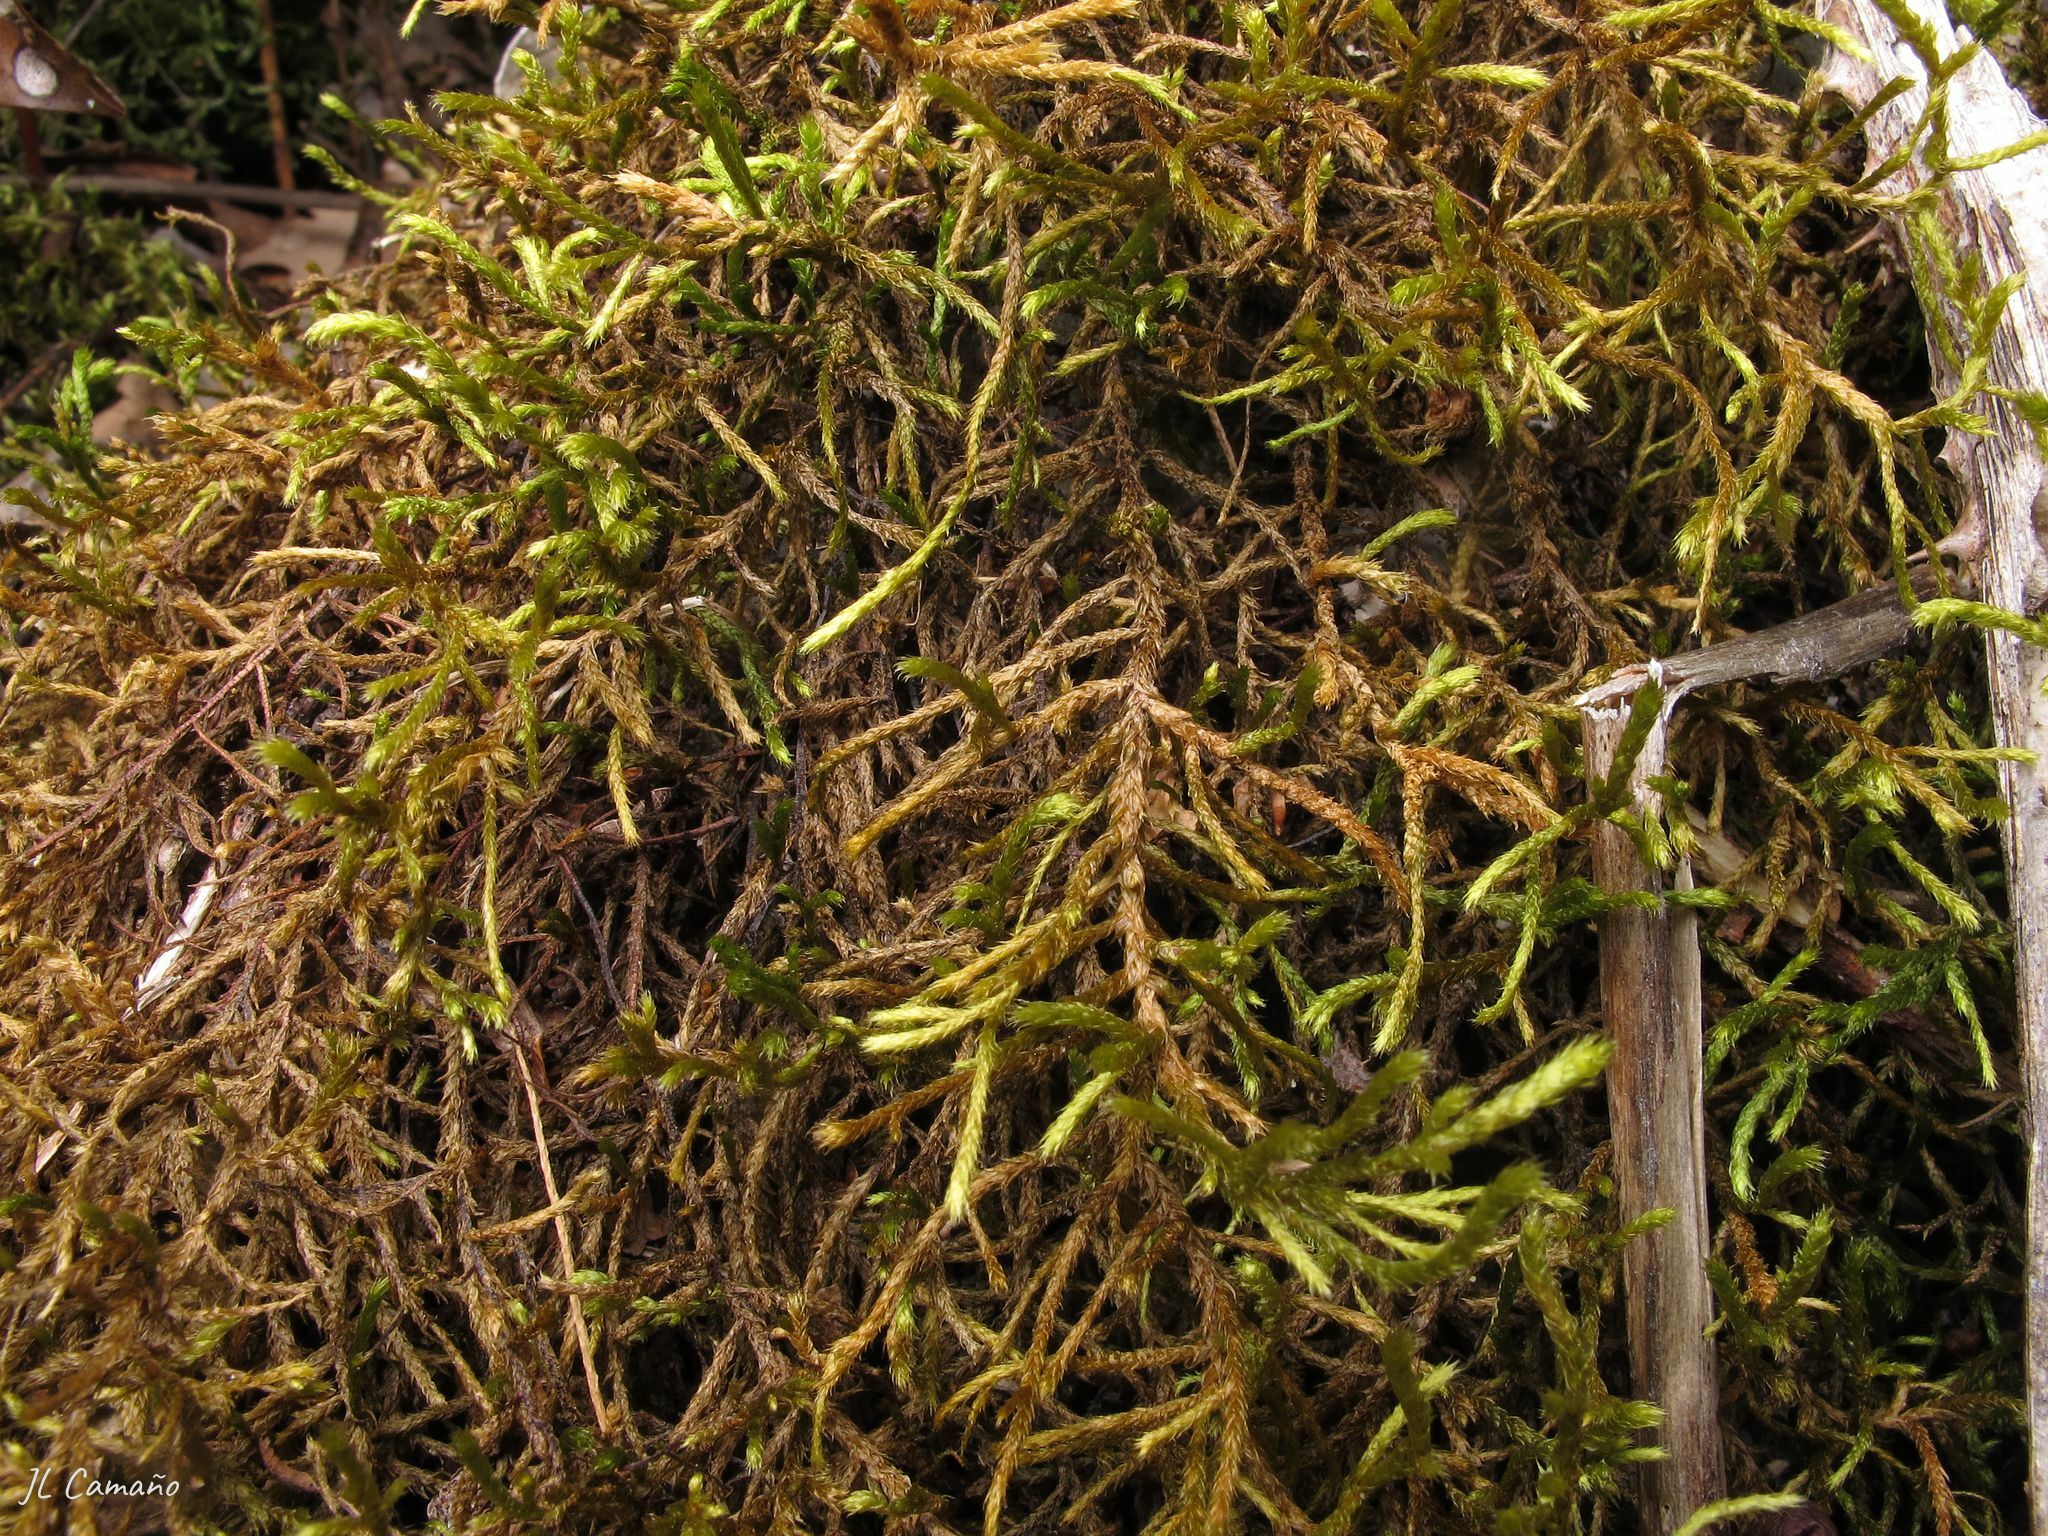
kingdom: Plantae
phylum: Bryophyta
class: Bryopsida
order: Hypnales
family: Antitrichiaceae
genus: Antitrichia
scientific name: Antitrichia curtipendula
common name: Pendulous wing-moss
